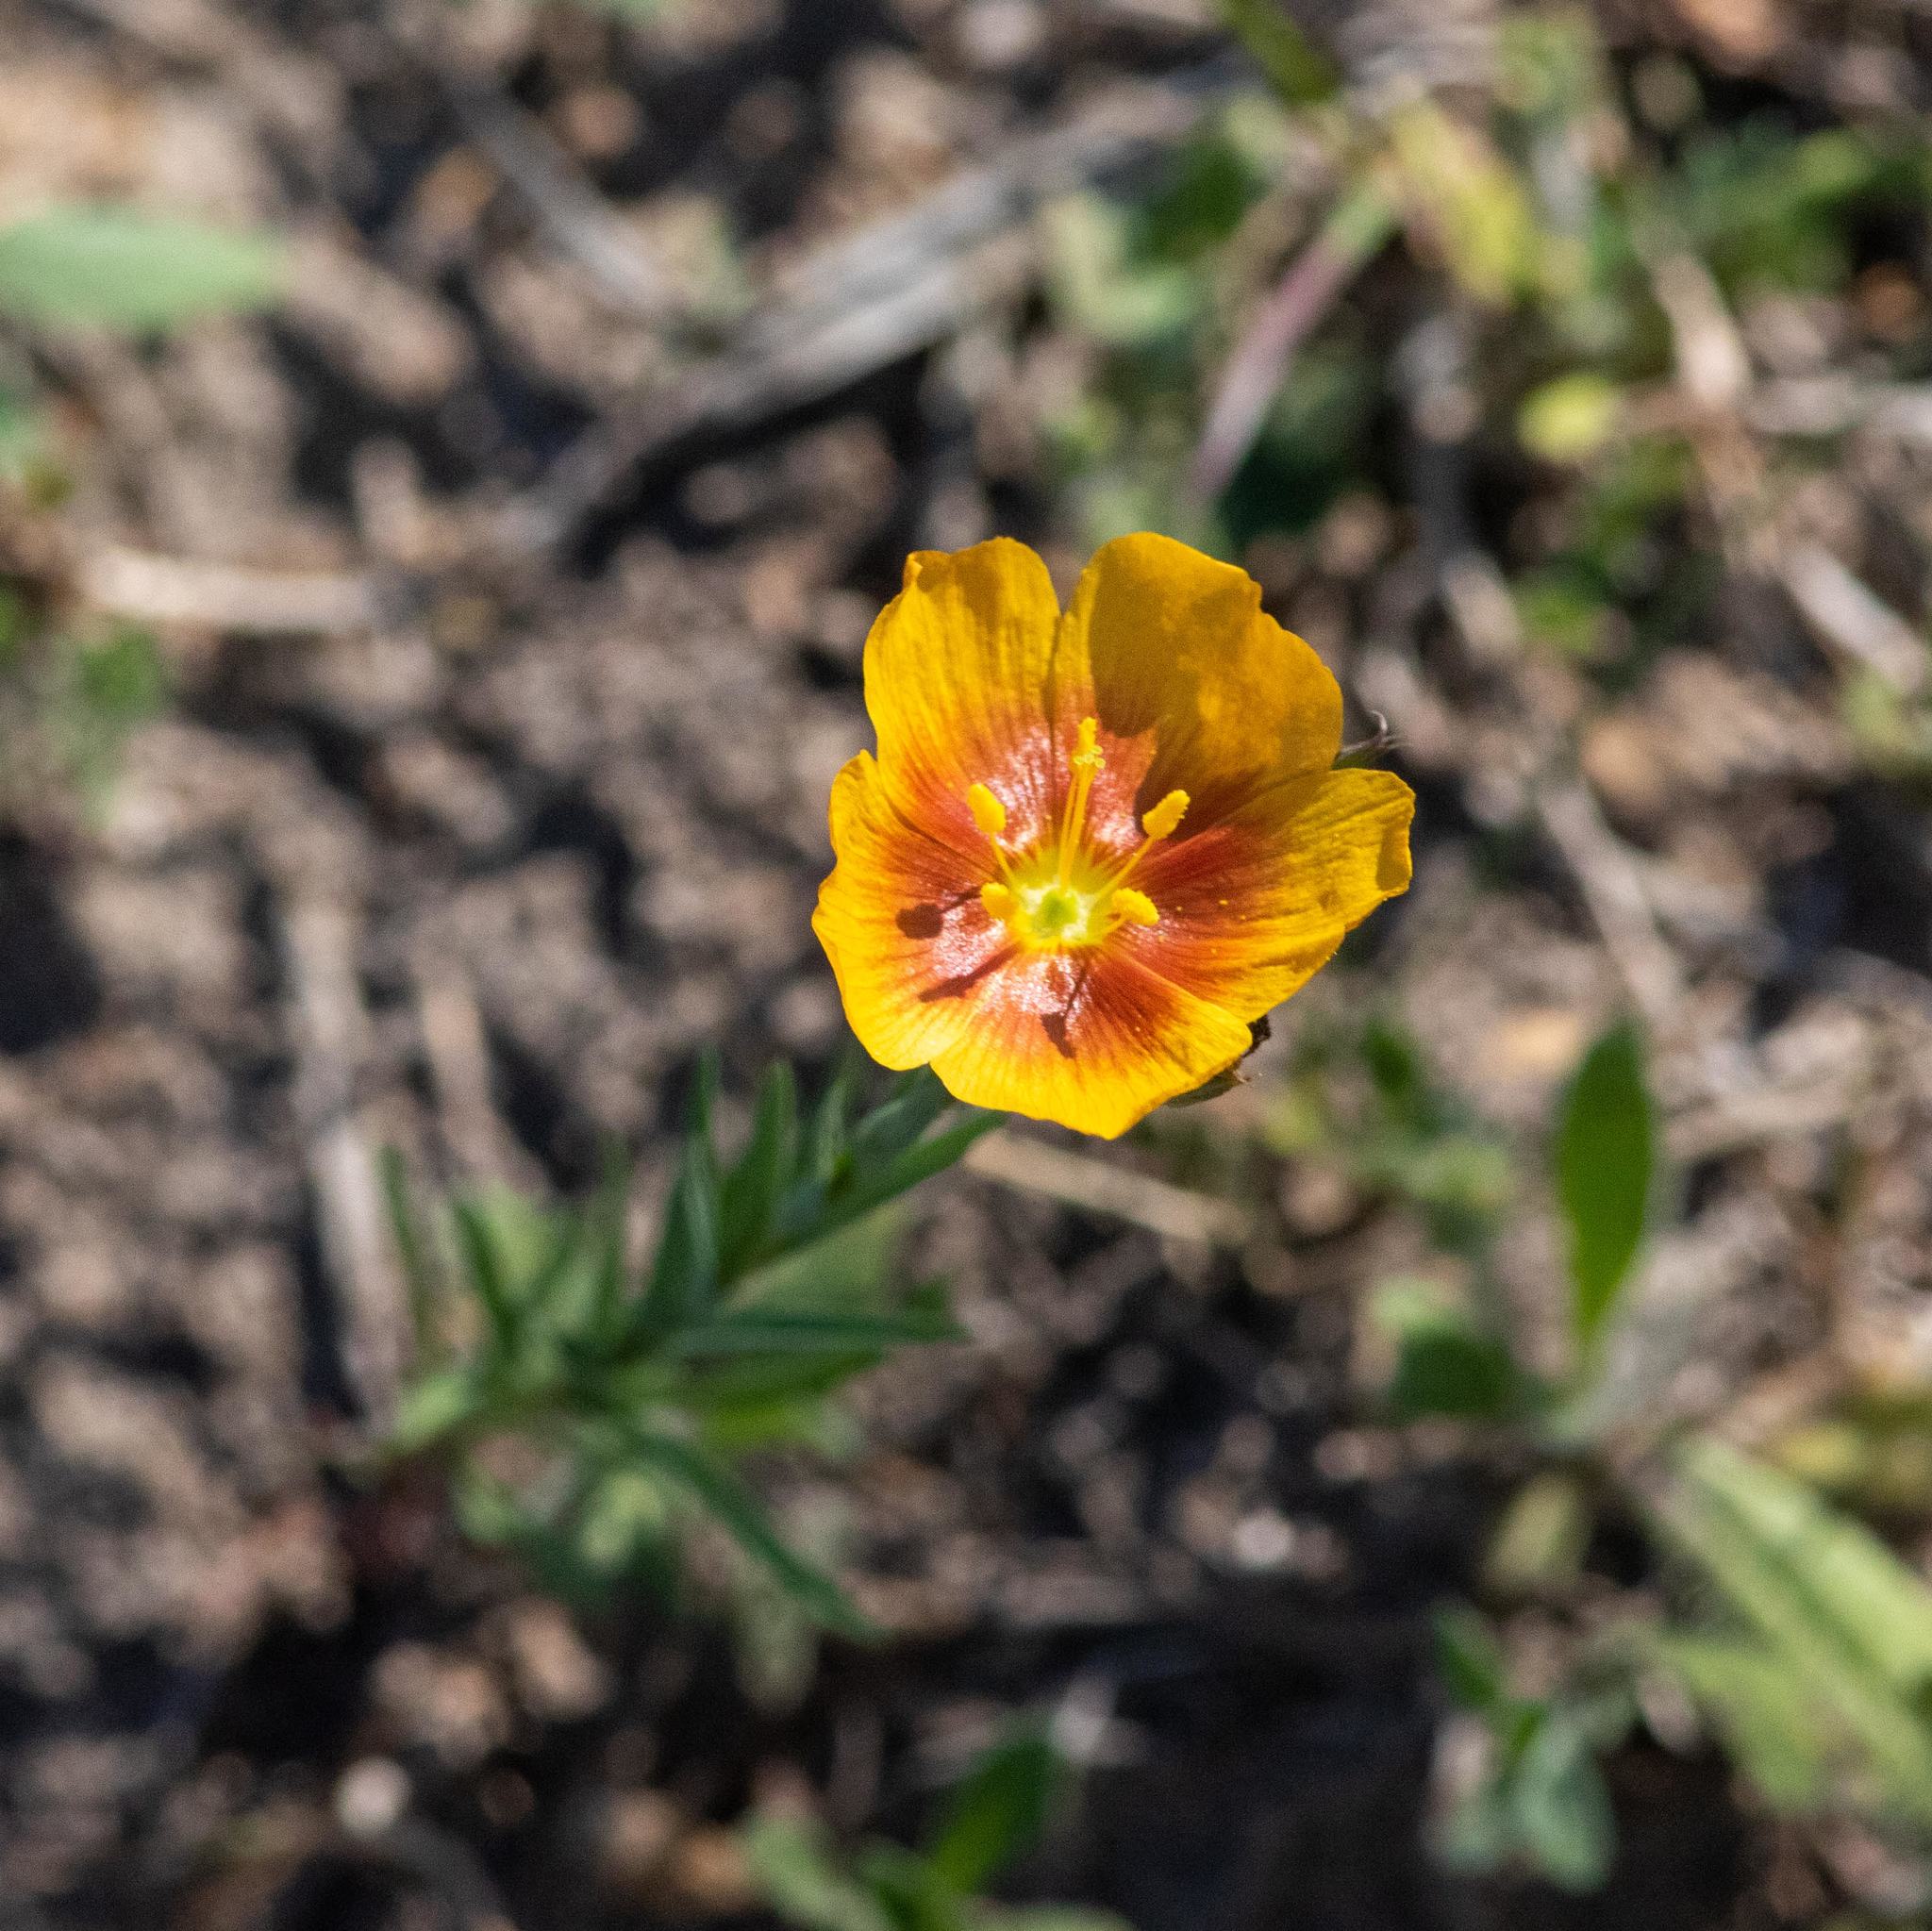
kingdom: Plantae
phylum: Tracheophyta
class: Magnoliopsida
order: Malpighiales
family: Linaceae
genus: Linum
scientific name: Linum rigidum
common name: Stiff-stem flax
